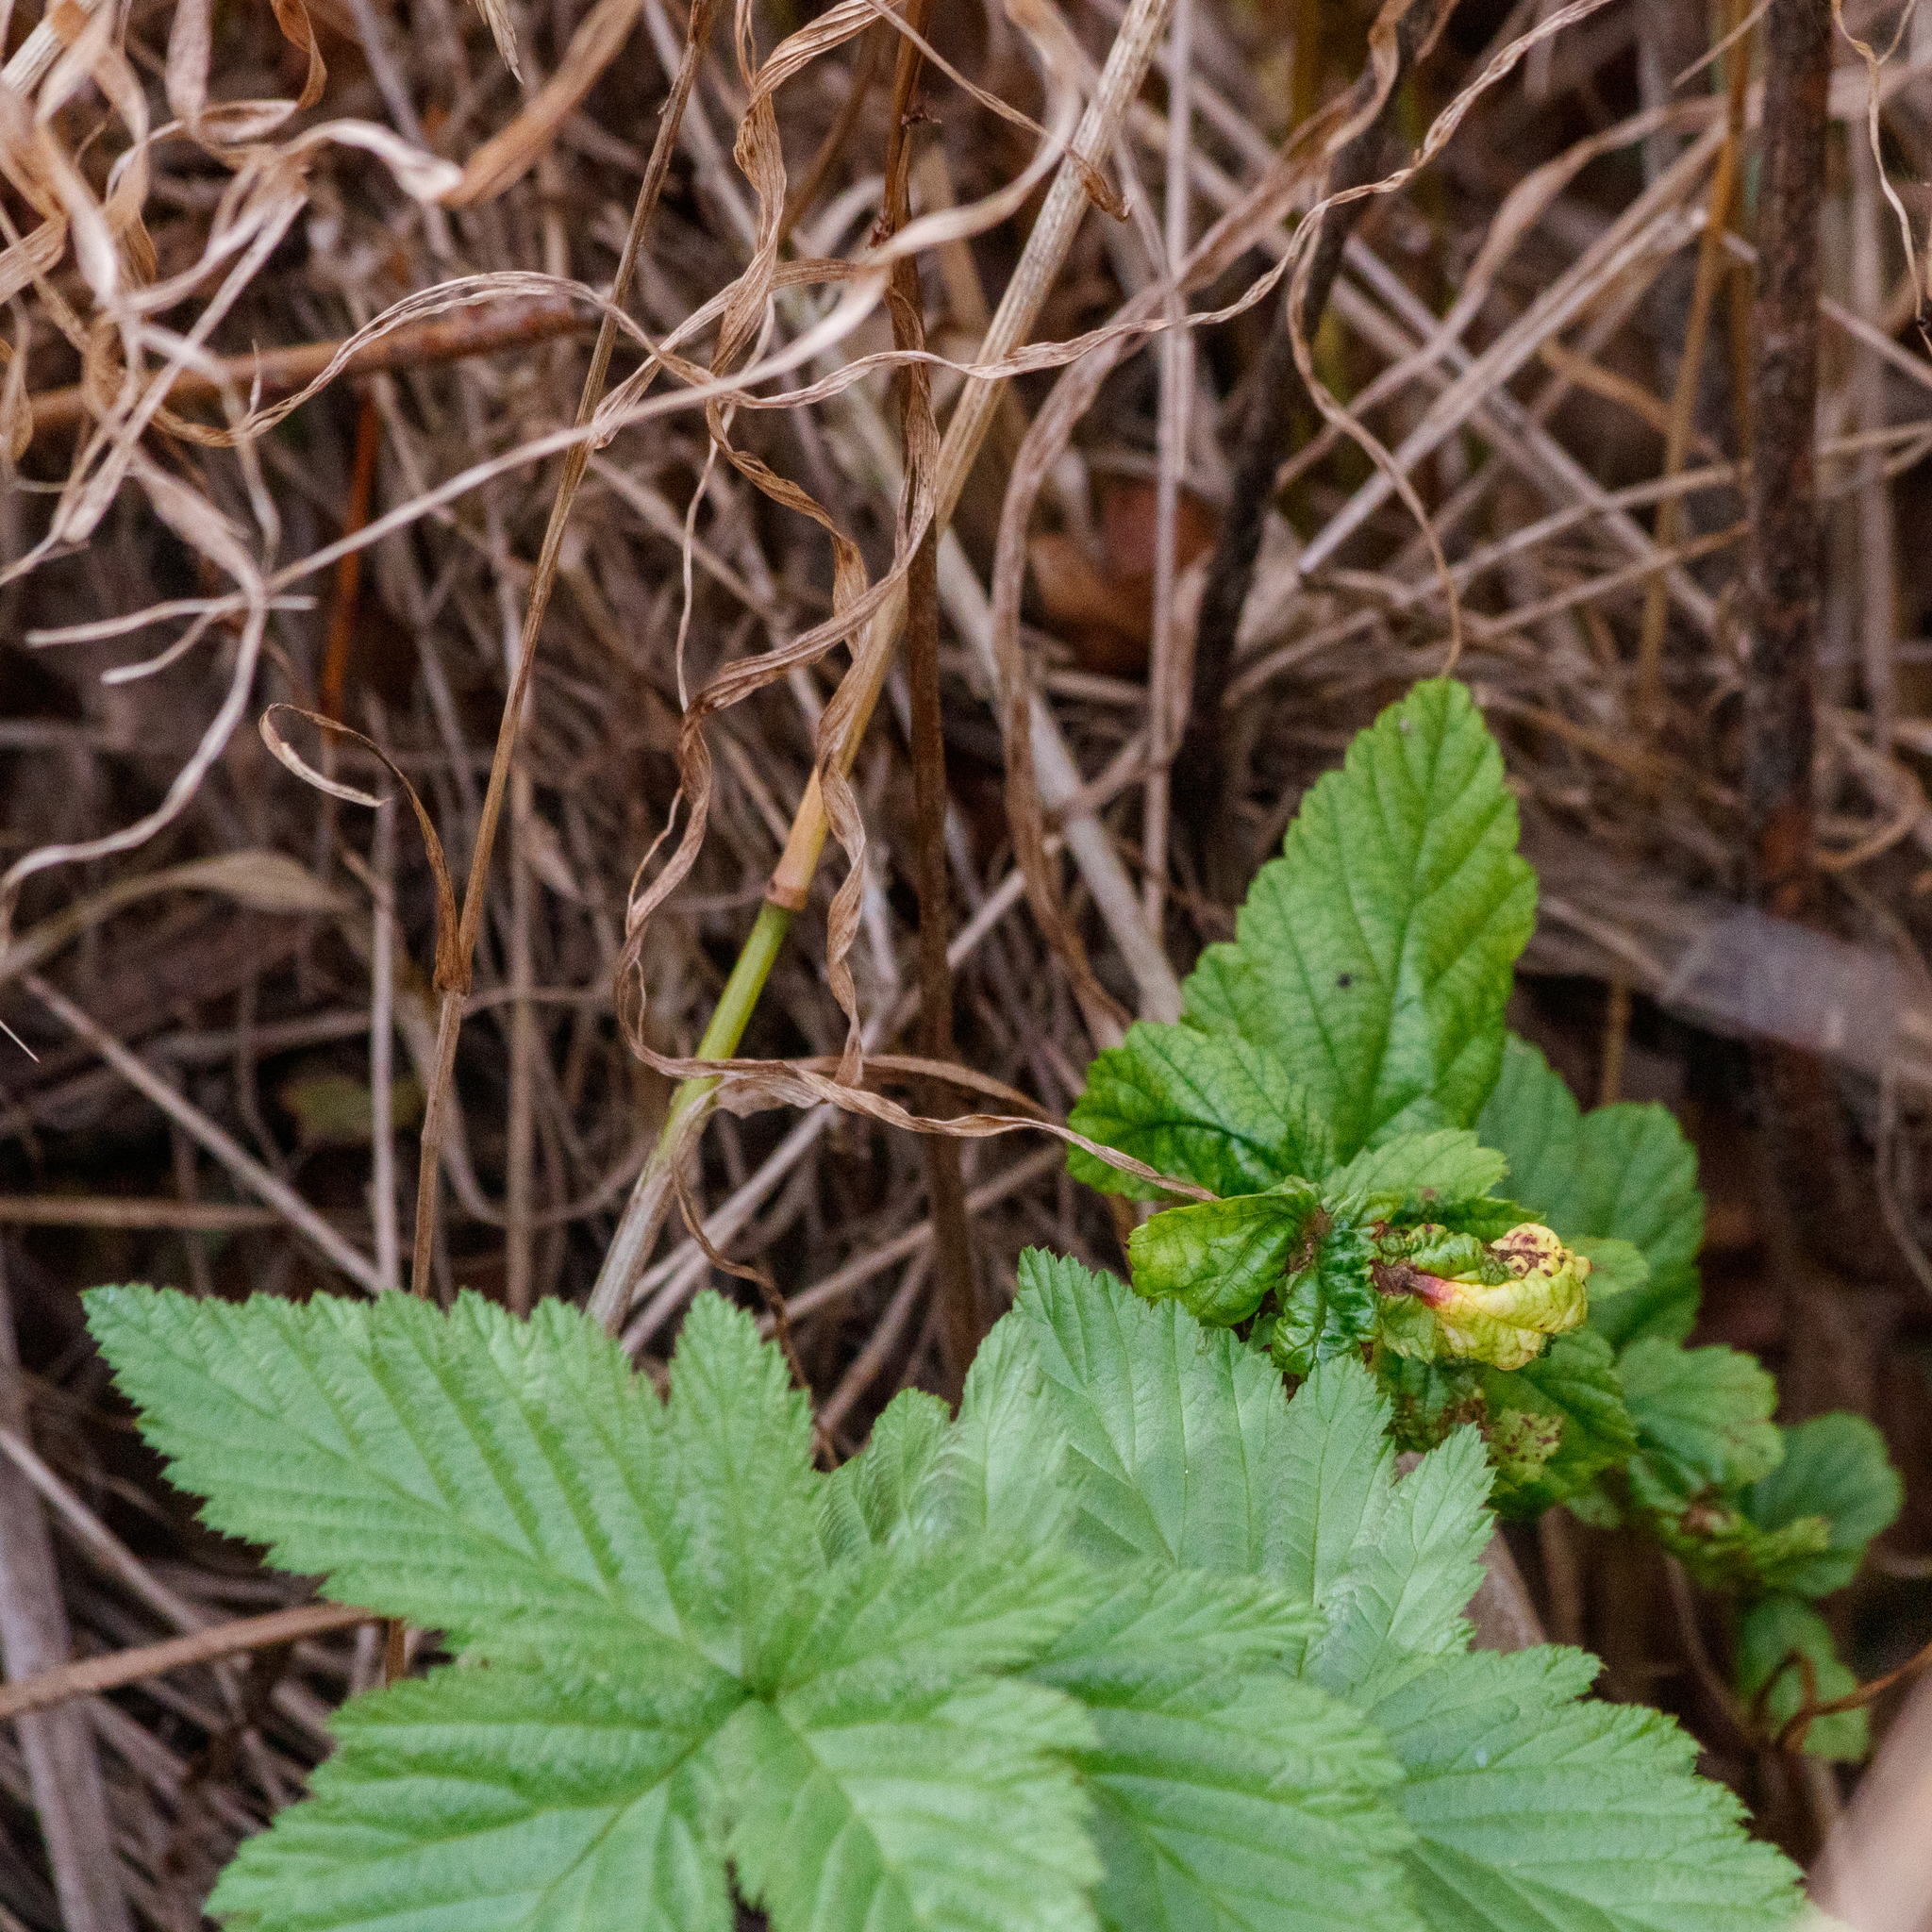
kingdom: Plantae
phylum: Tracheophyta
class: Magnoliopsida
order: Rosales
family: Rosaceae
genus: Filipendula
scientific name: Filipendula ulmaria
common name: Meadowsweet
